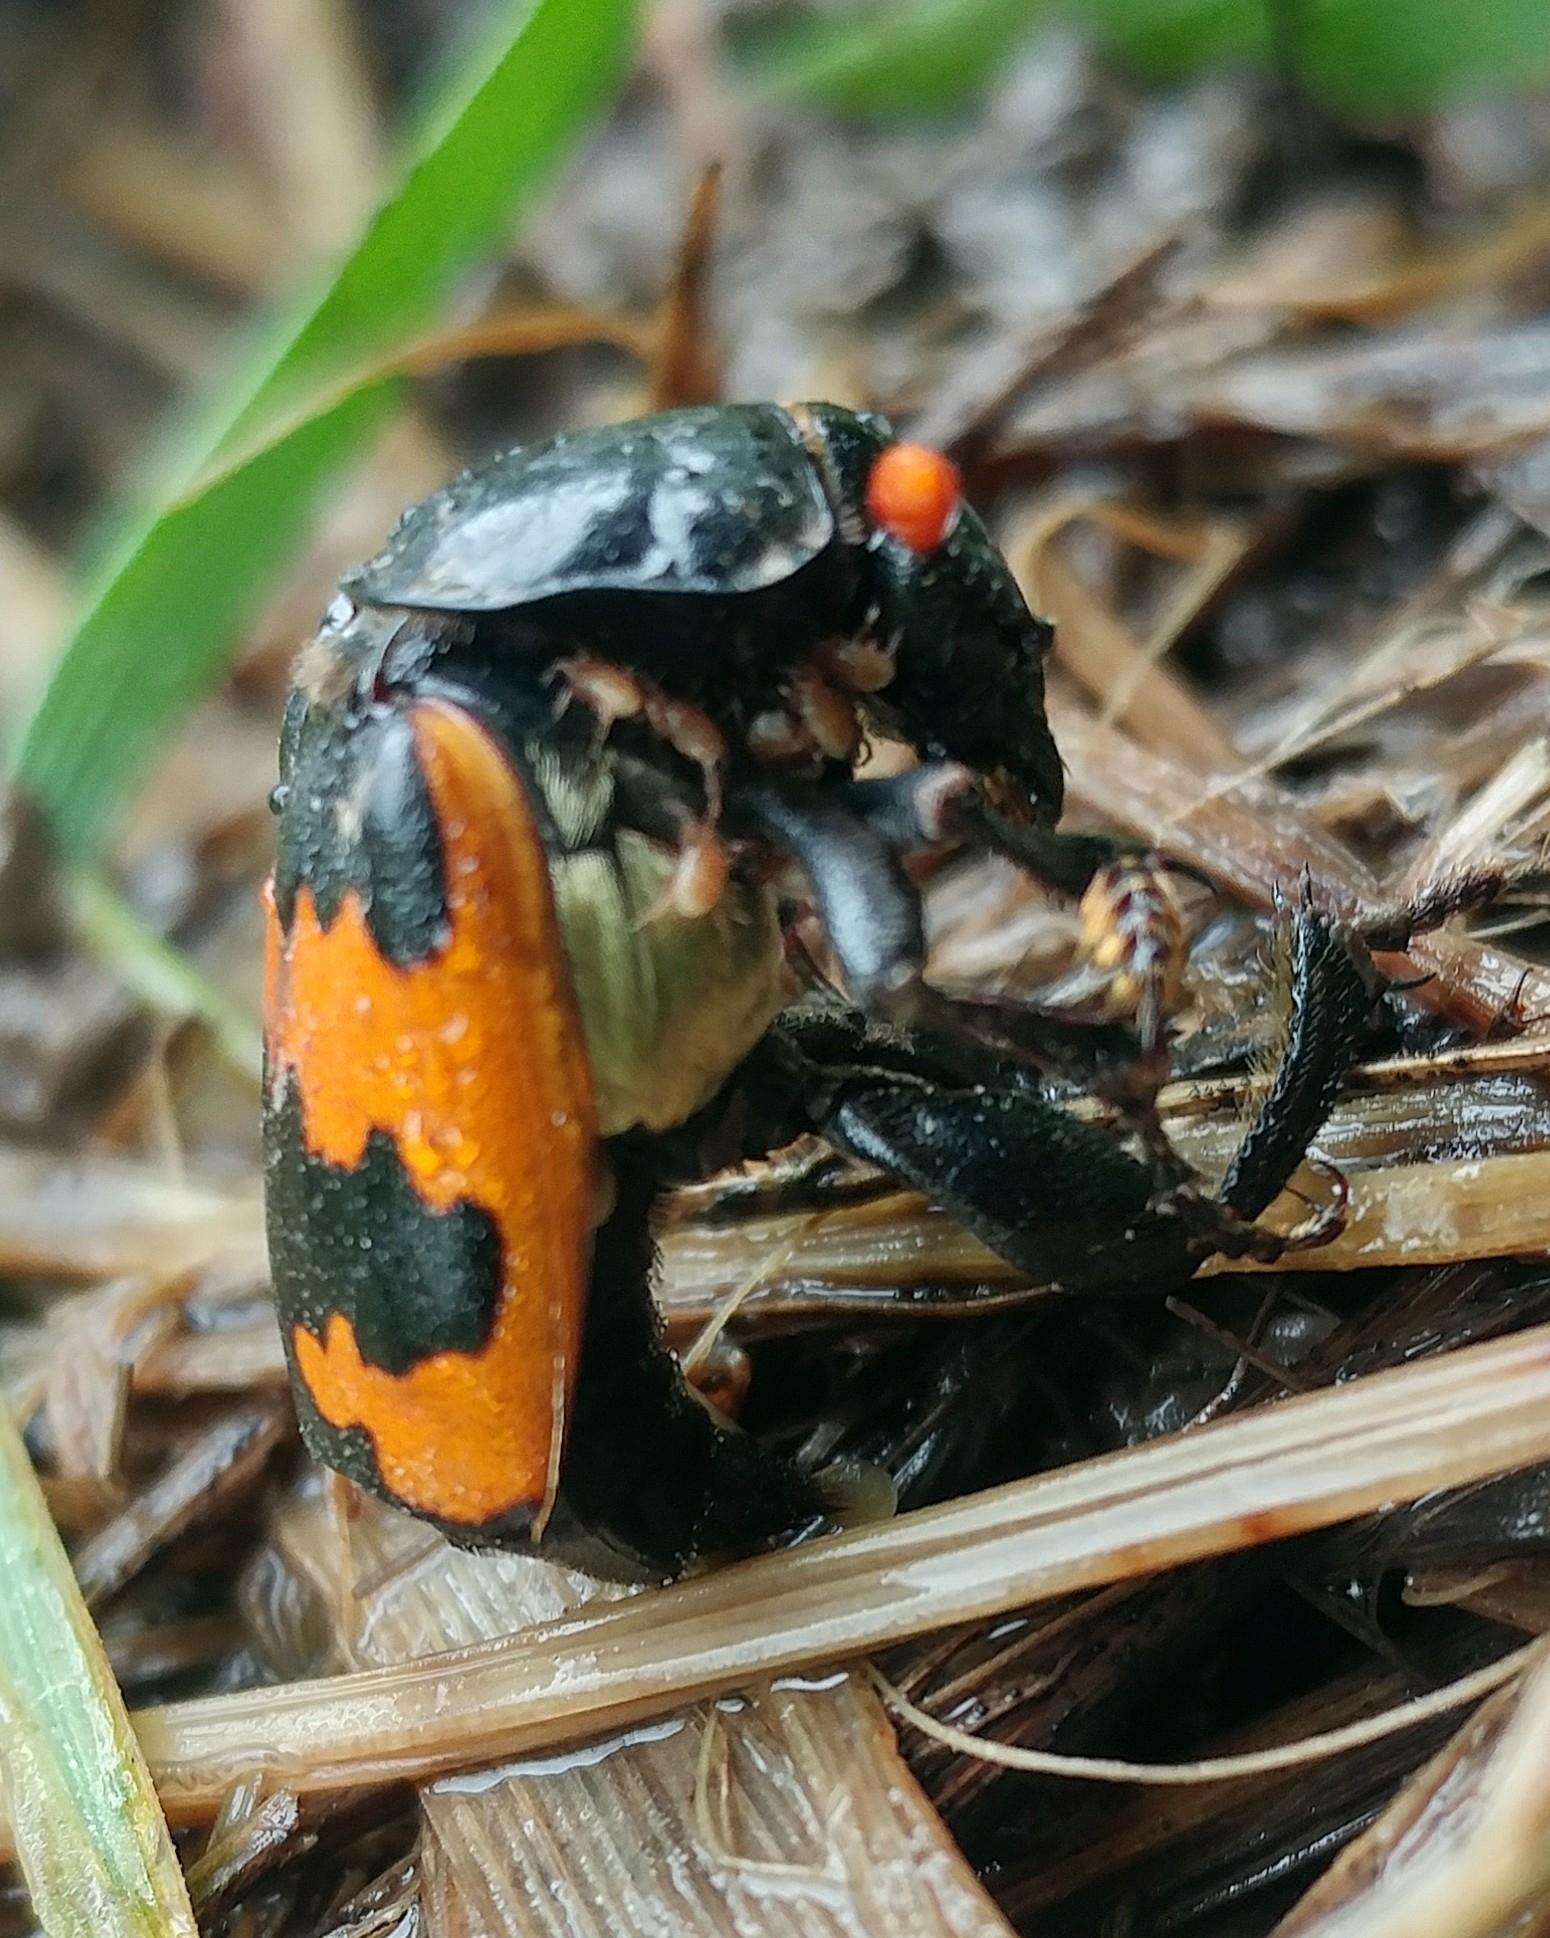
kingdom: Animalia
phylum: Arthropoda
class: Insecta
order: Coleoptera
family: Staphylinidae
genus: Nicrophorus
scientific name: Nicrophorus marginatus
